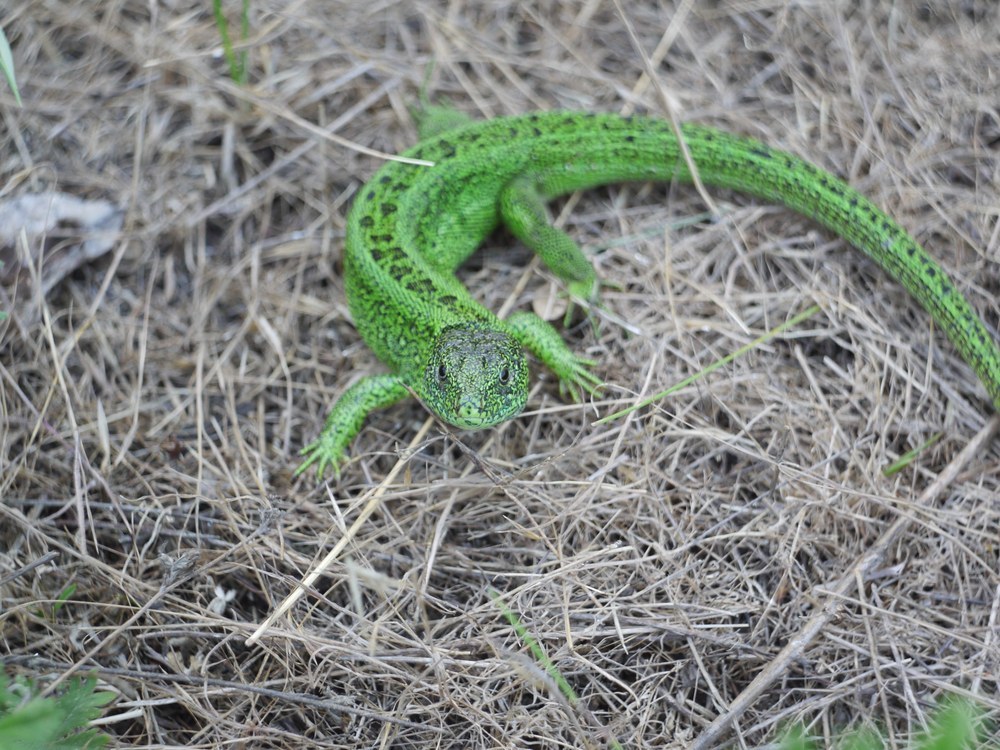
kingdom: Animalia
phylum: Chordata
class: Squamata
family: Lacertidae
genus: Lacerta
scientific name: Lacerta agilis
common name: Sand lizard
